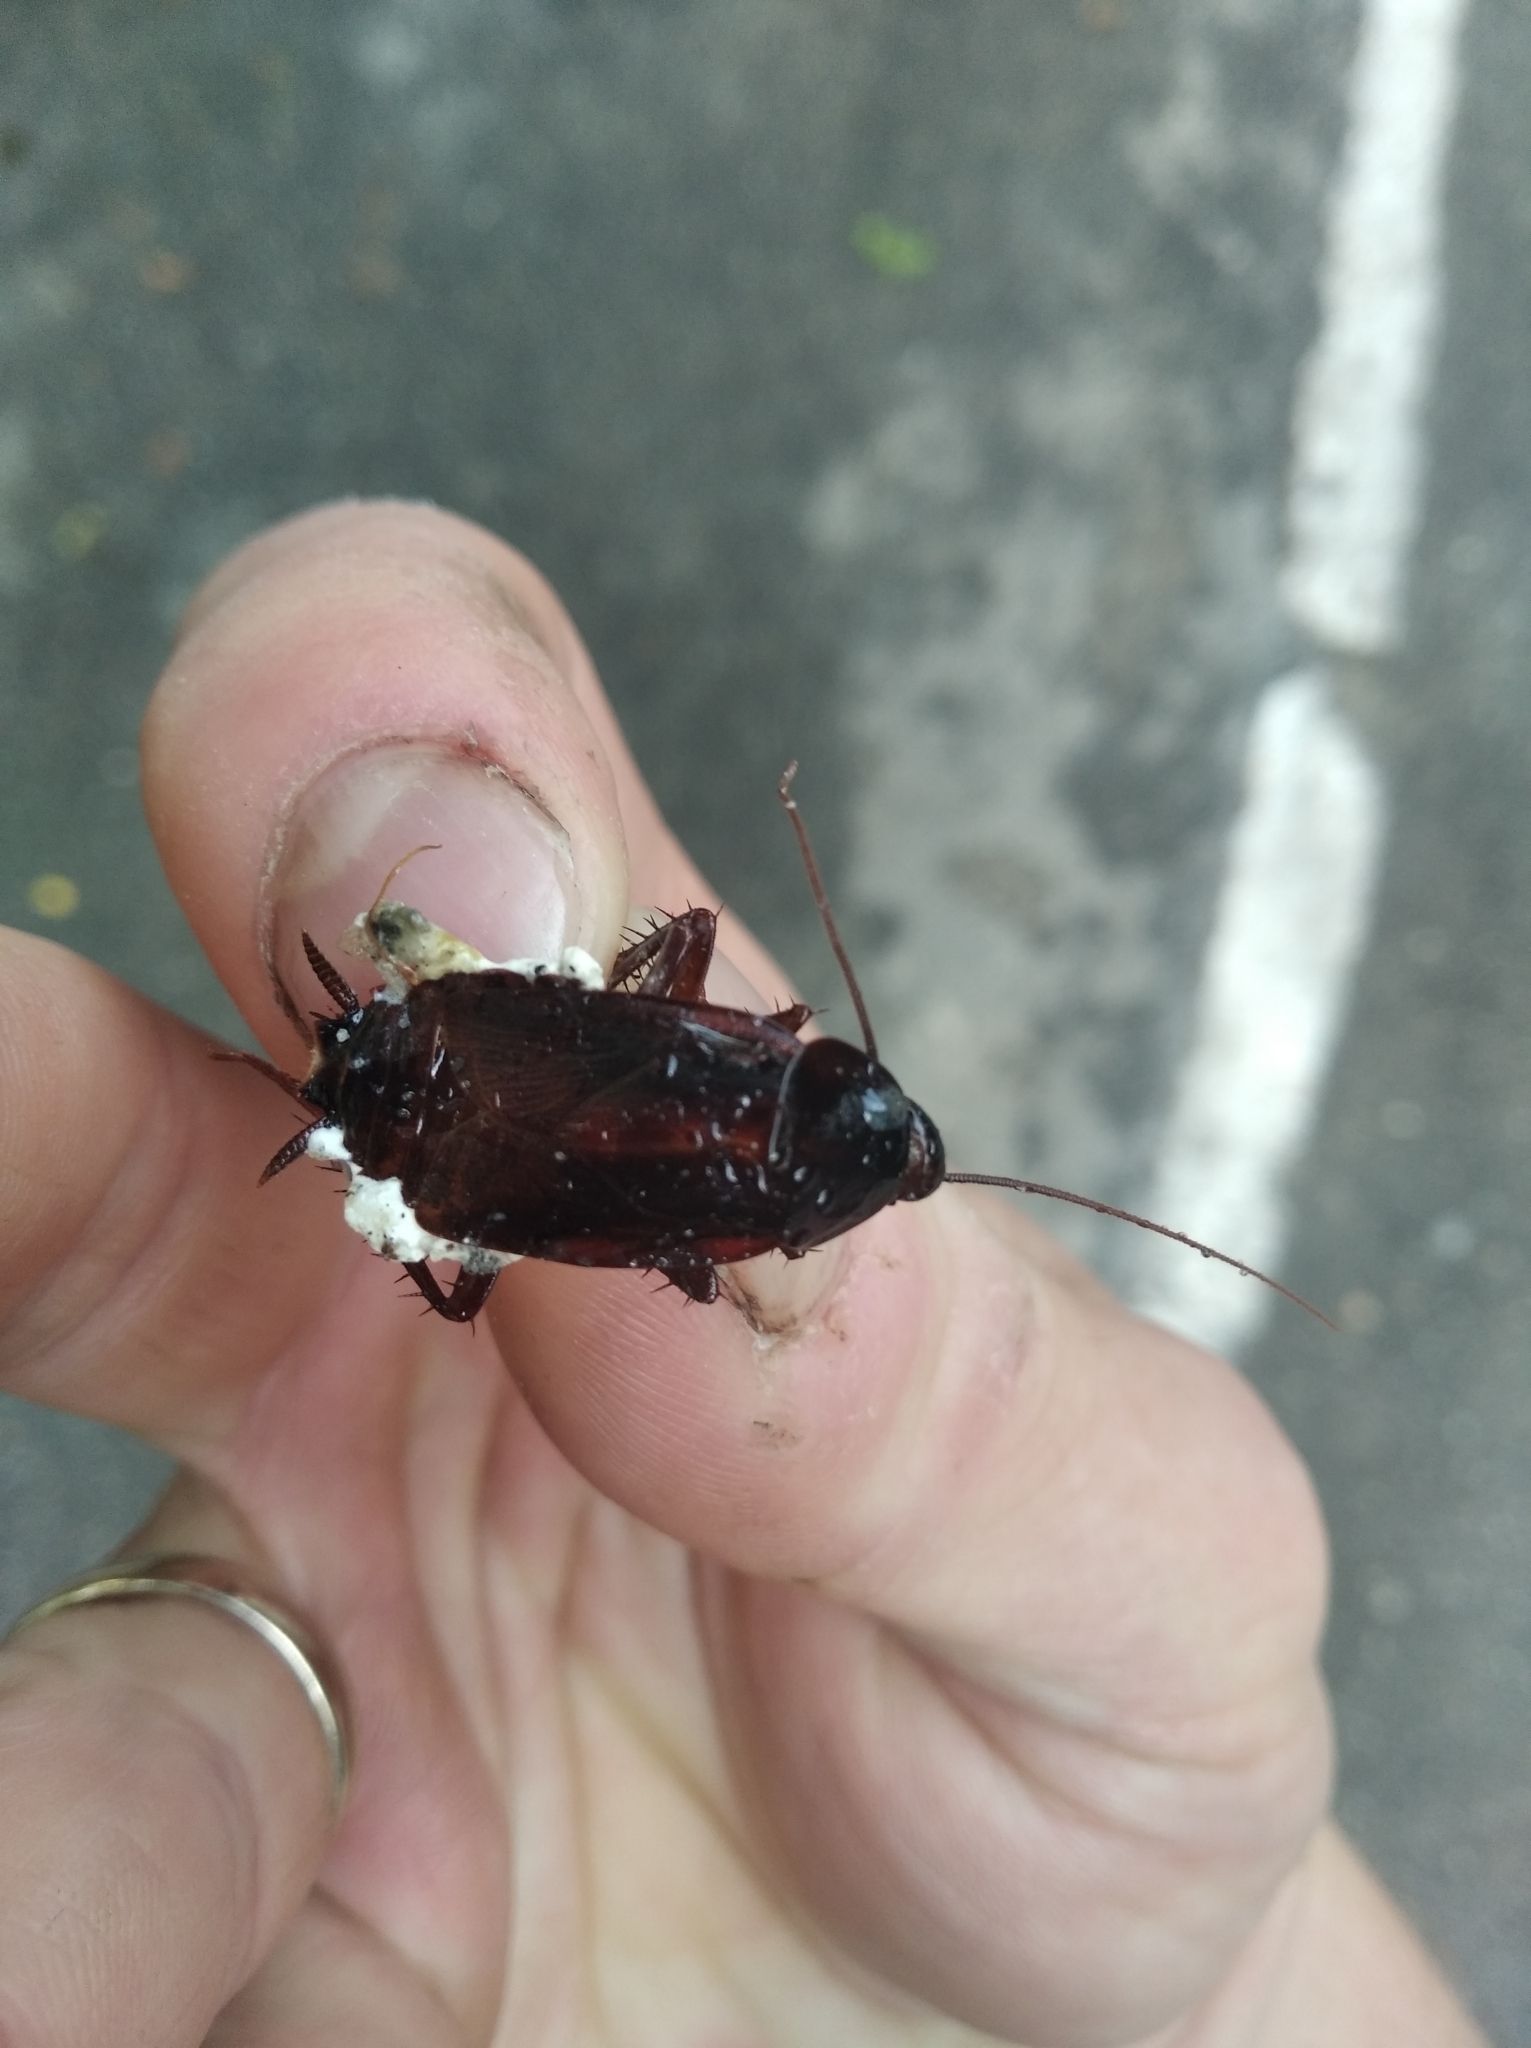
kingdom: Animalia
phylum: Arthropoda
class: Insecta
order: Blattodea
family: Blattidae
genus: Blatta
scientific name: Blatta orientalis
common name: Oriental cockroach
